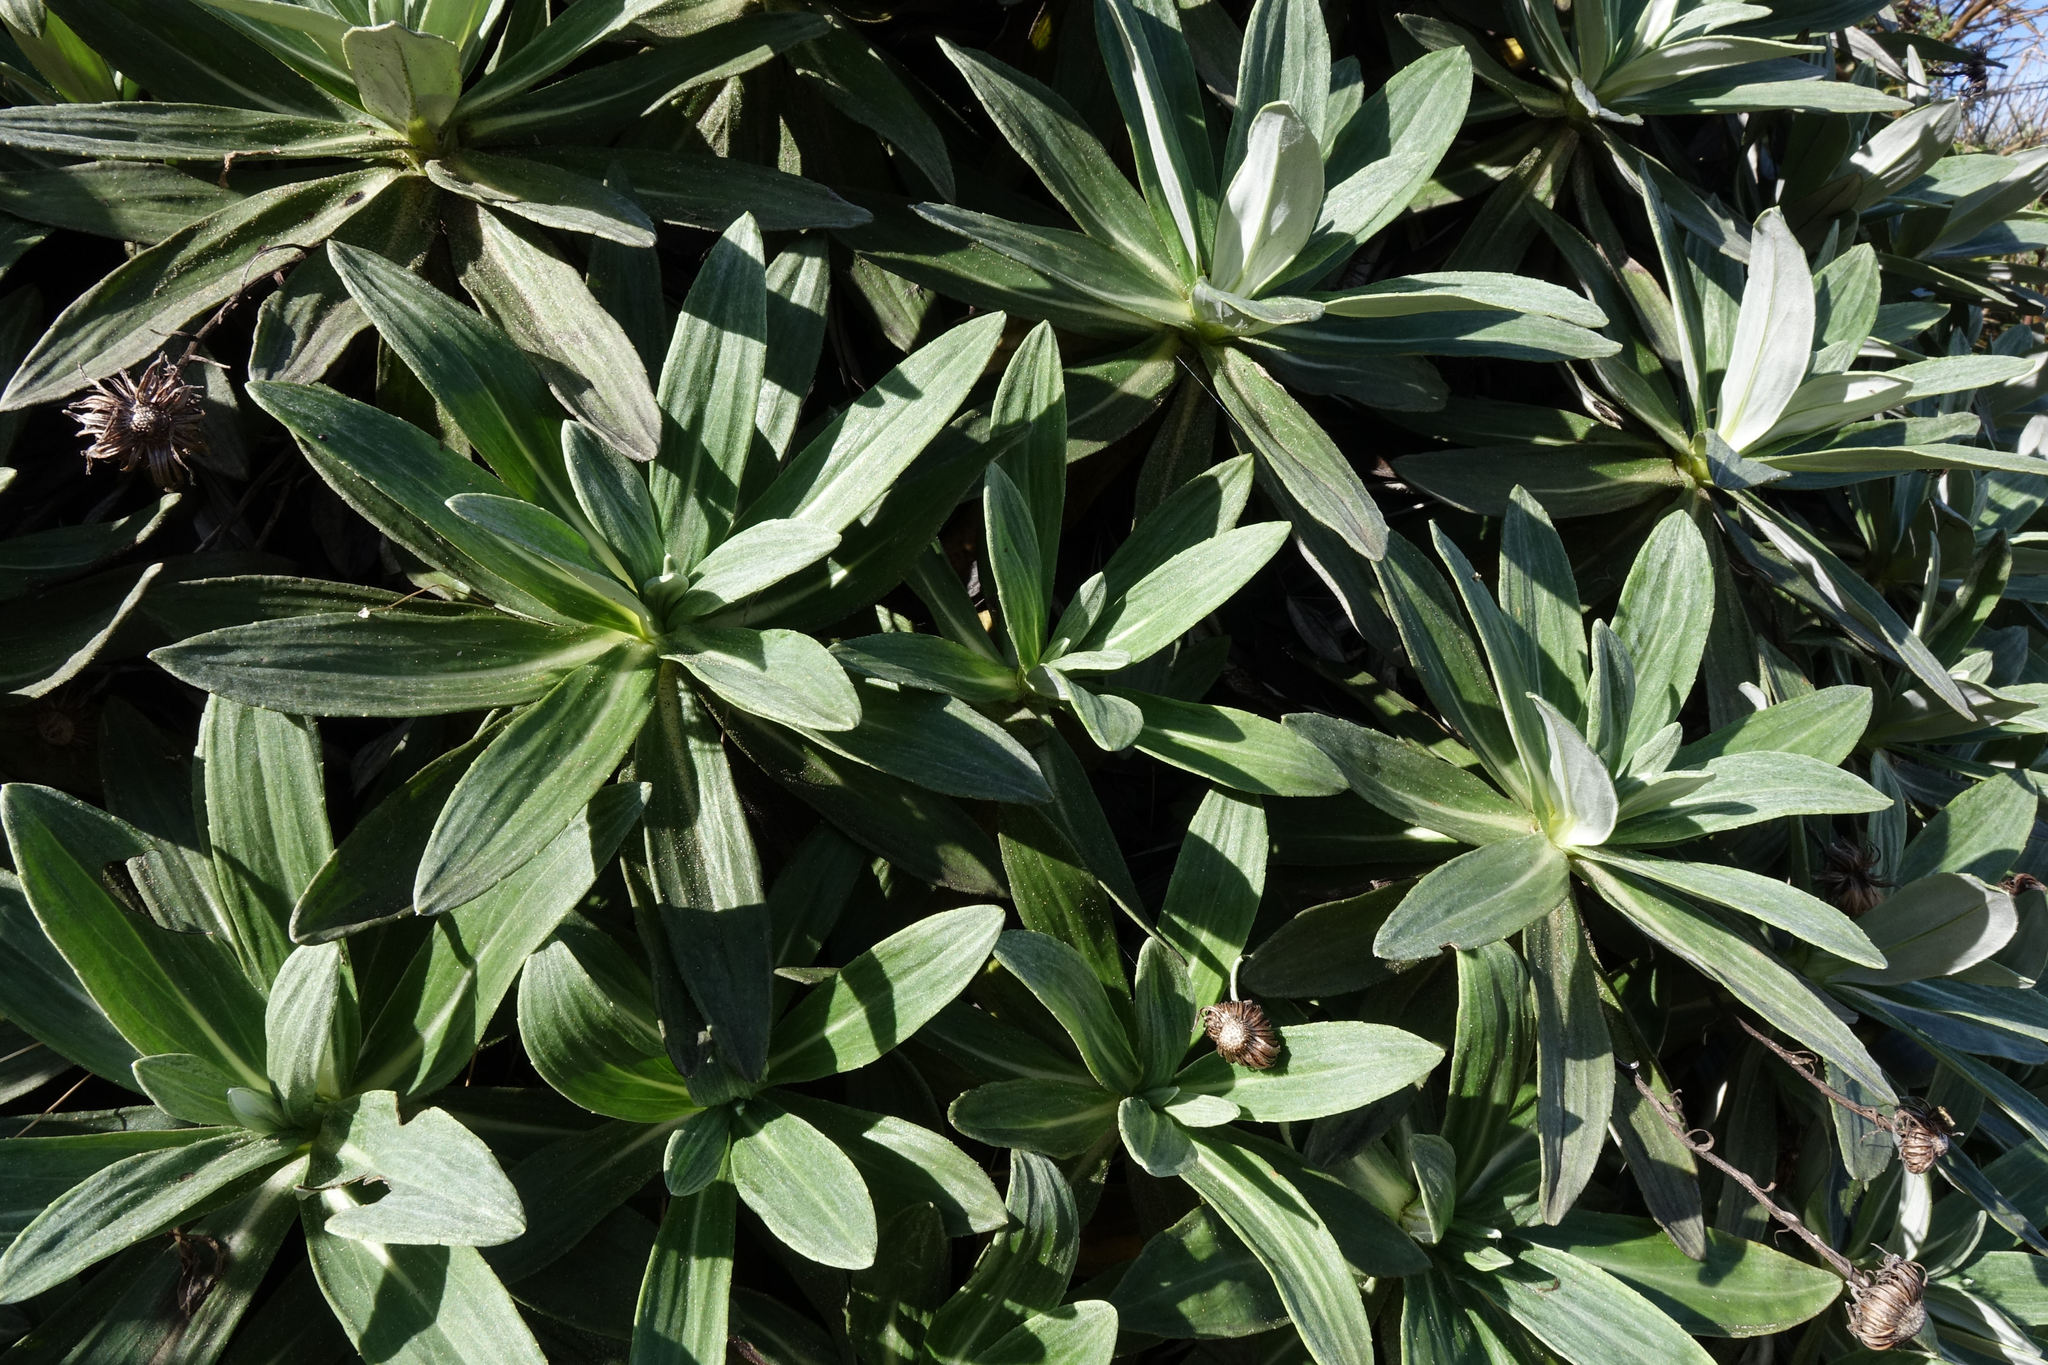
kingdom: Plantae
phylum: Tracheophyta
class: Magnoliopsida
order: Asterales
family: Asteraceae
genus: Celmisia
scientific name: Celmisia lindsayi
